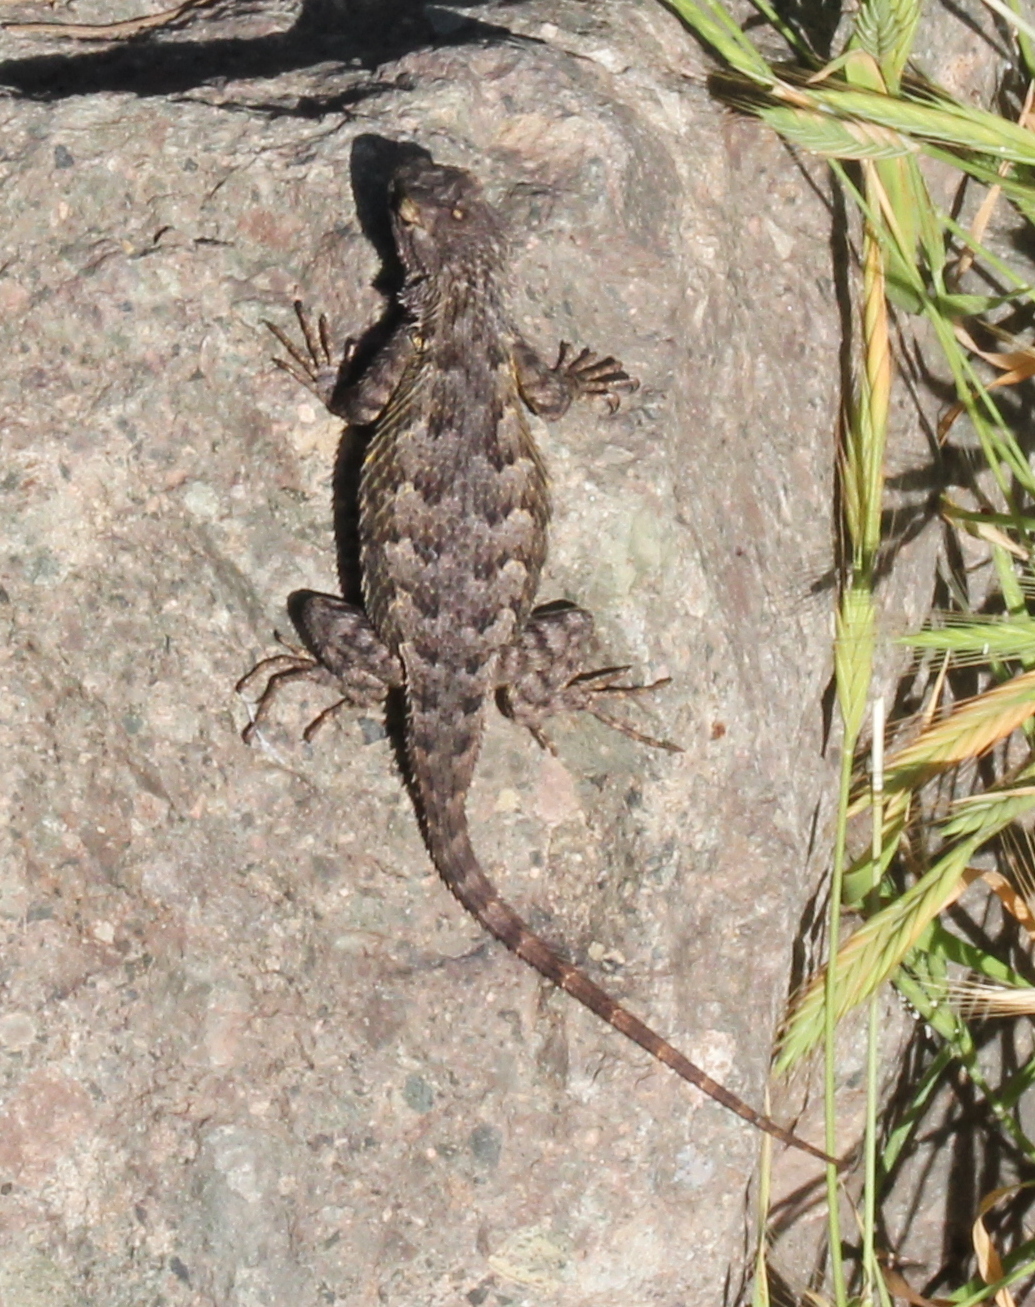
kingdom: Animalia
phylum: Chordata
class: Squamata
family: Phrynosomatidae
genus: Sceloporus
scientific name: Sceloporus occidentalis
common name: Western fence lizard
